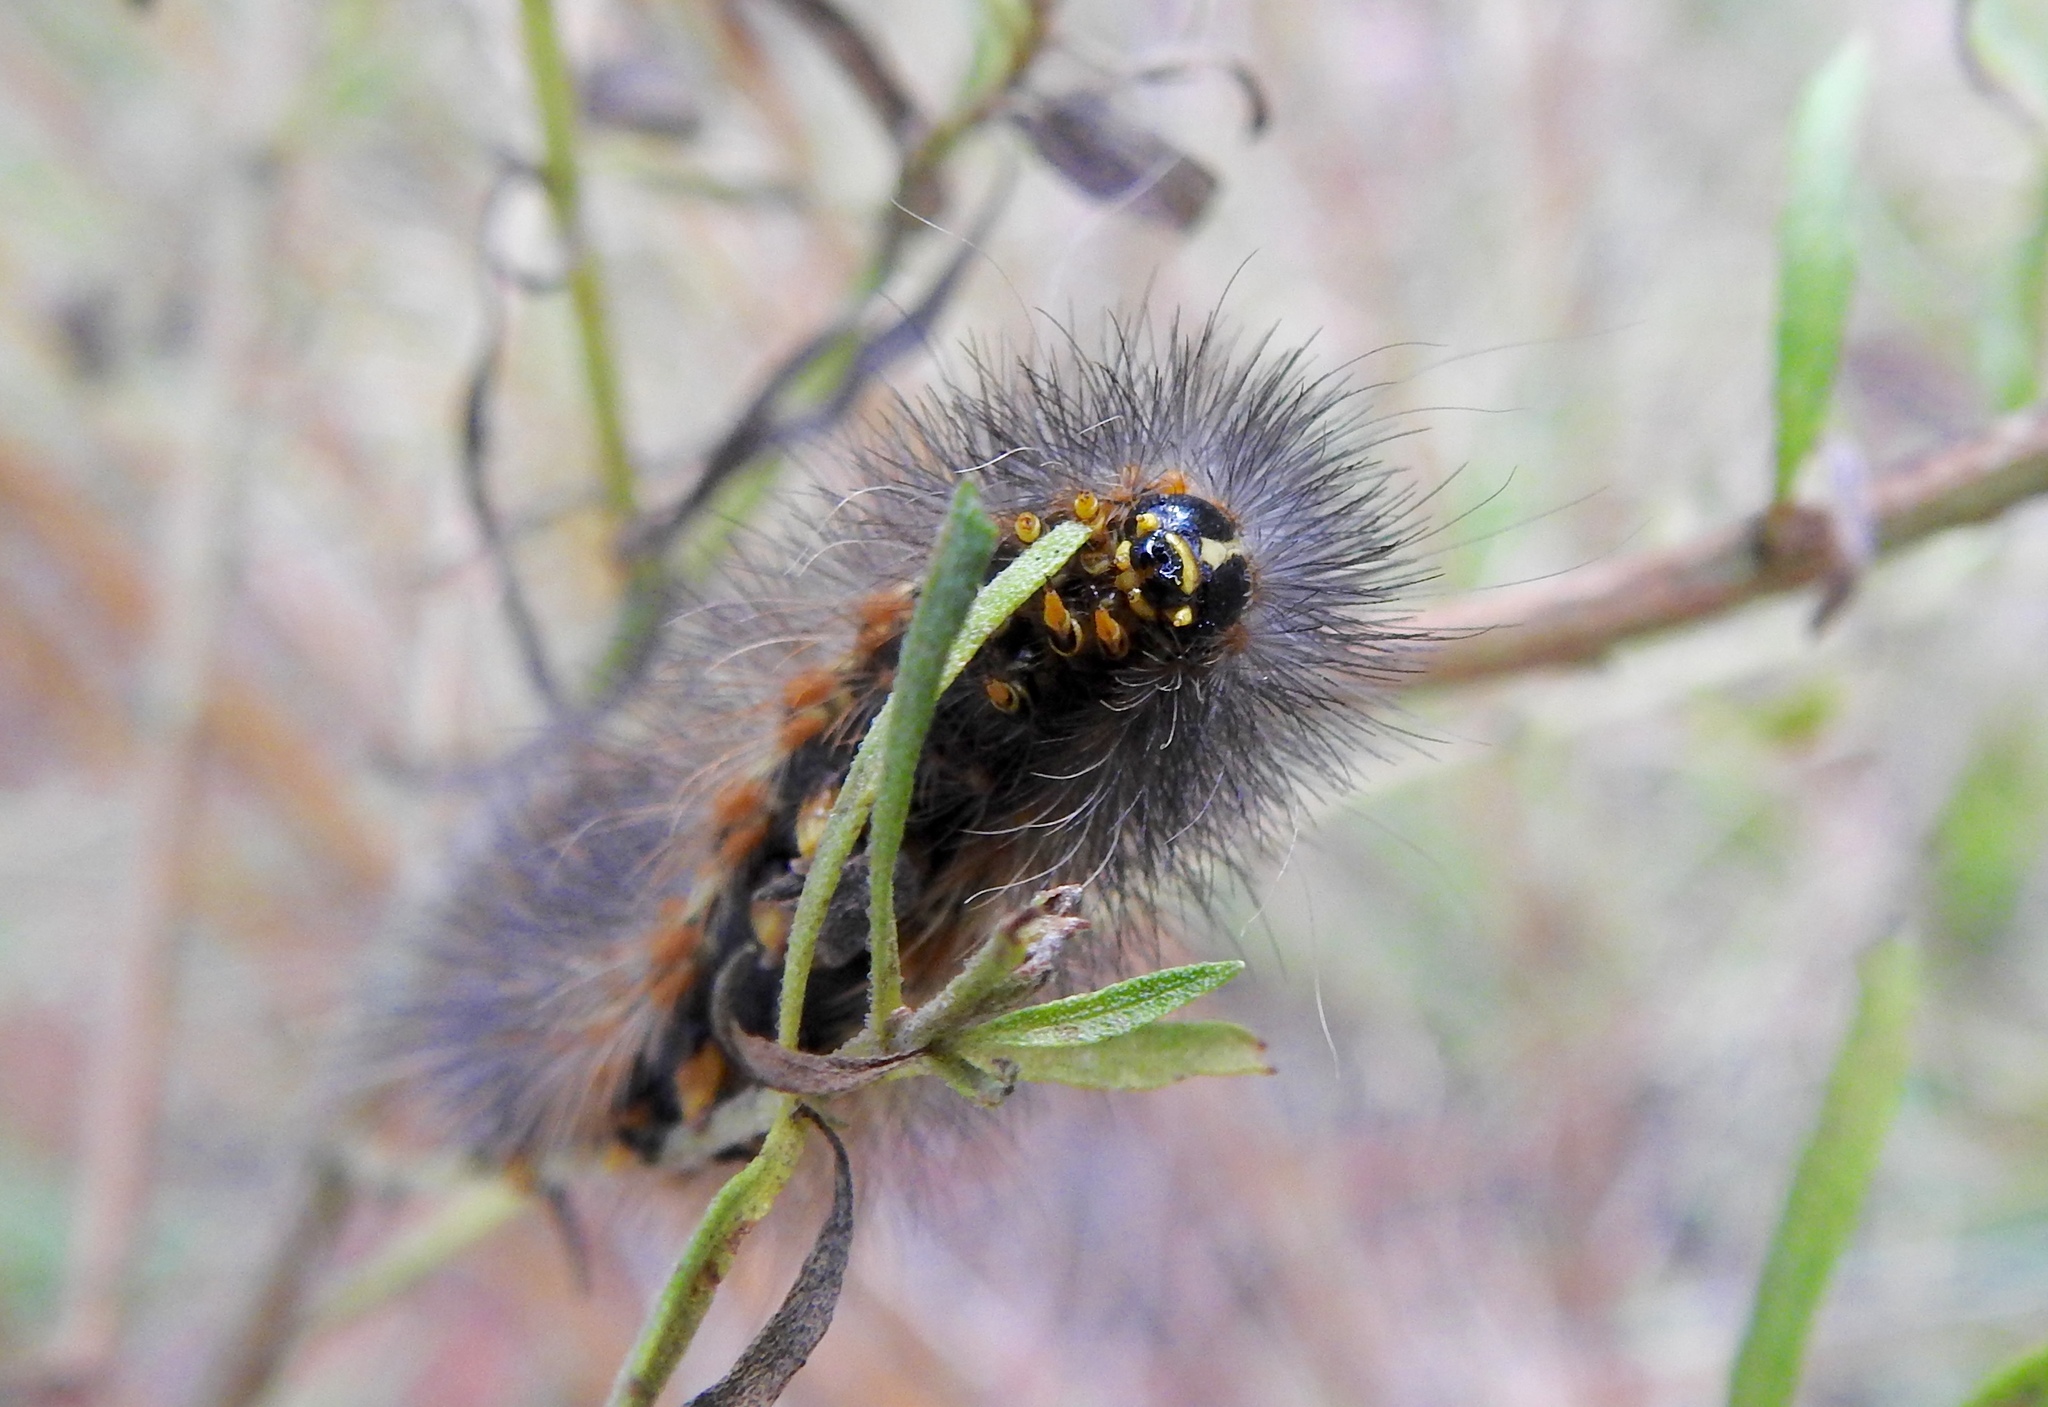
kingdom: Animalia
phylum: Arthropoda
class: Insecta
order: Lepidoptera
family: Erebidae
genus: Estigmene
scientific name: Estigmene acrea
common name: Salt marsh moth
